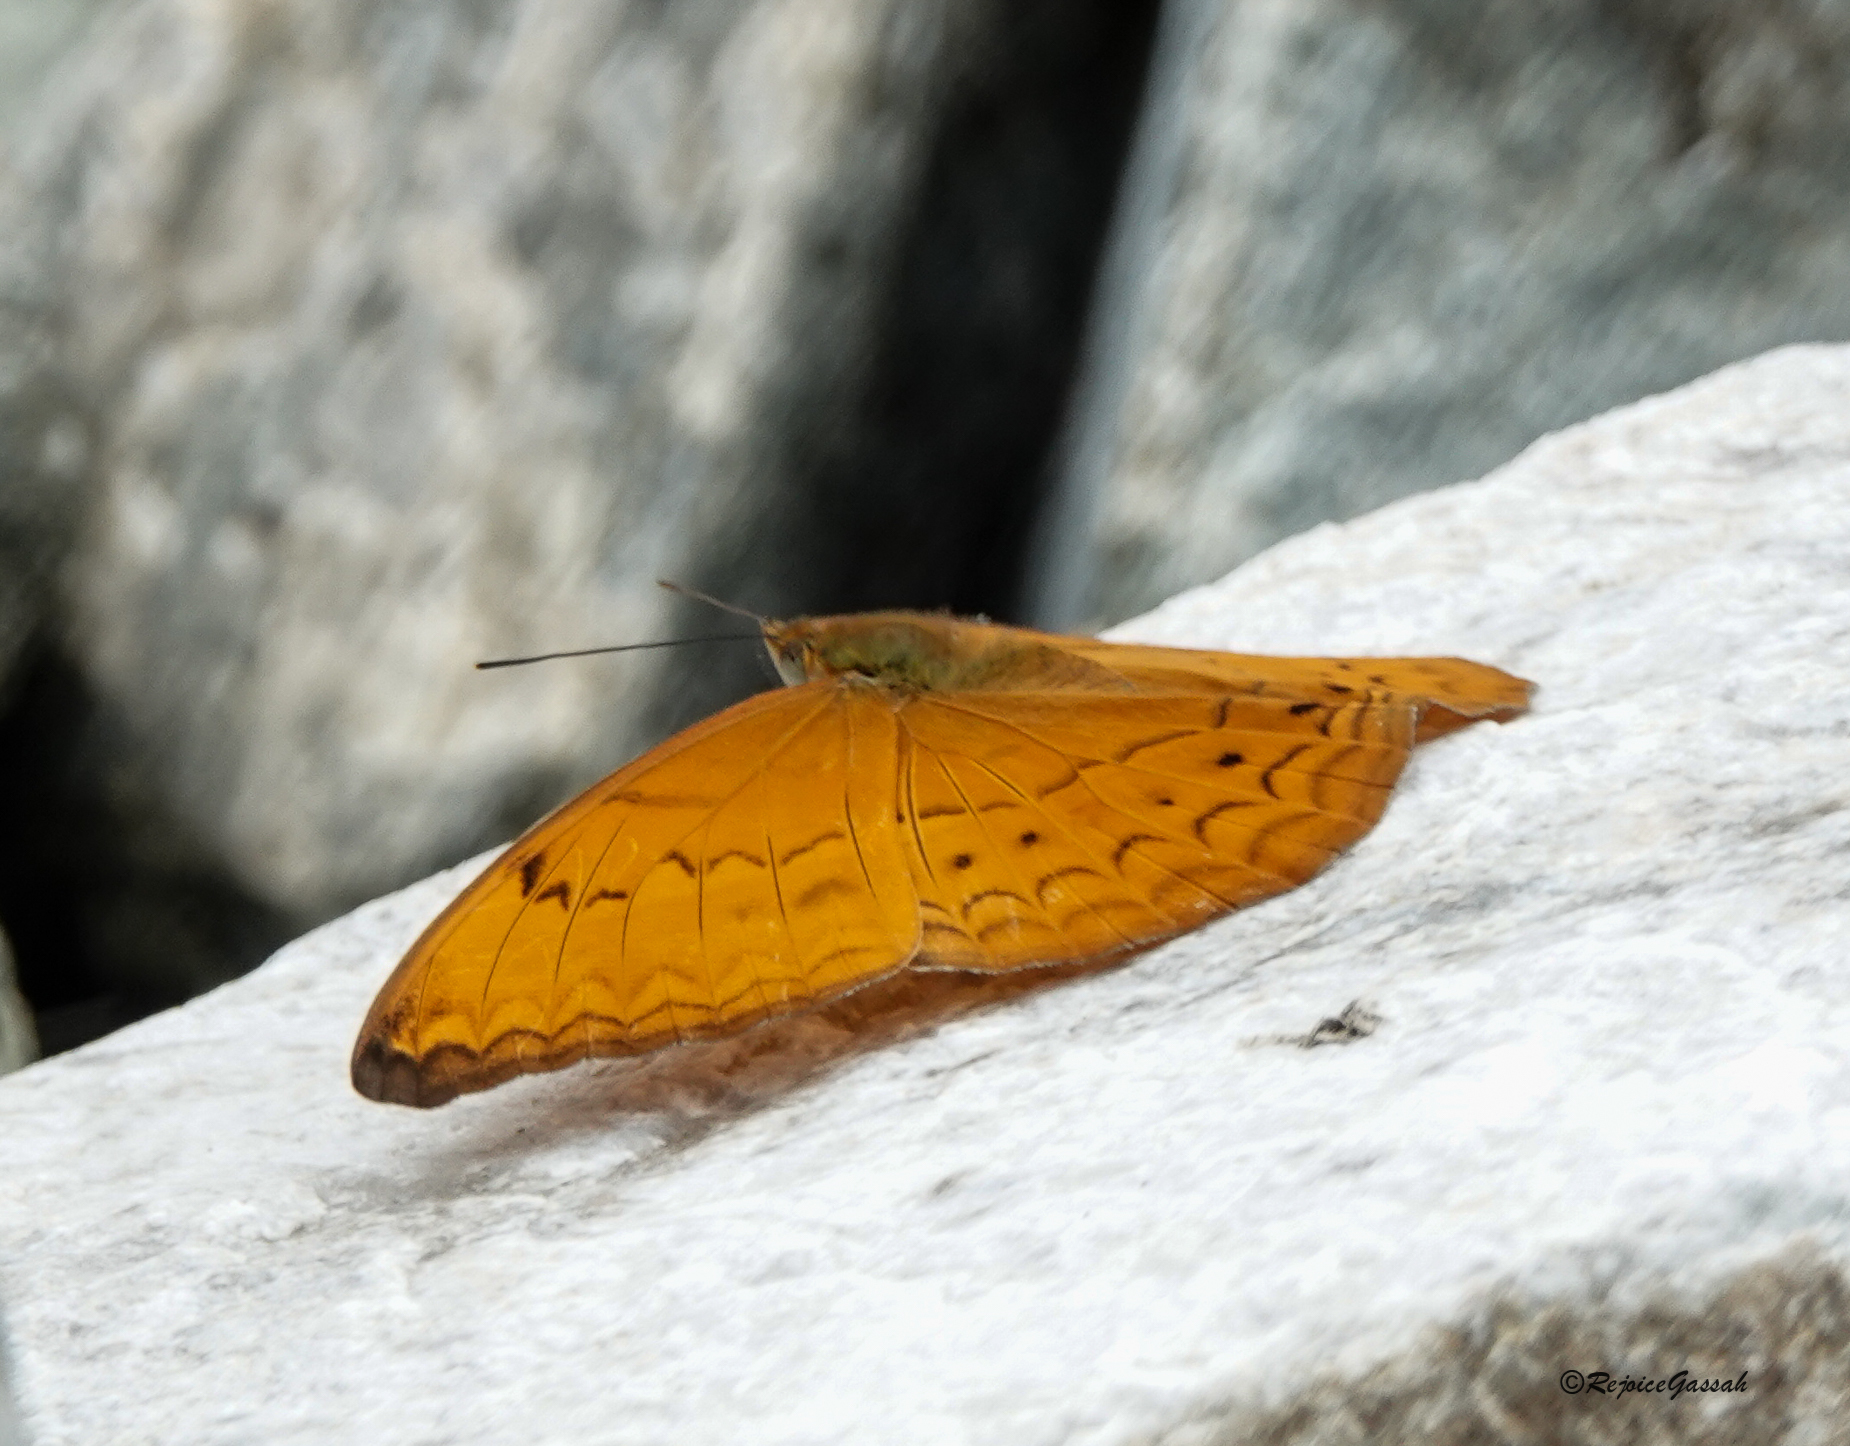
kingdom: Animalia
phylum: Arthropoda
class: Insecta
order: Lepidoptera
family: Nymphalidae
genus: Cirrochroa
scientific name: Cirrochroa aoris
